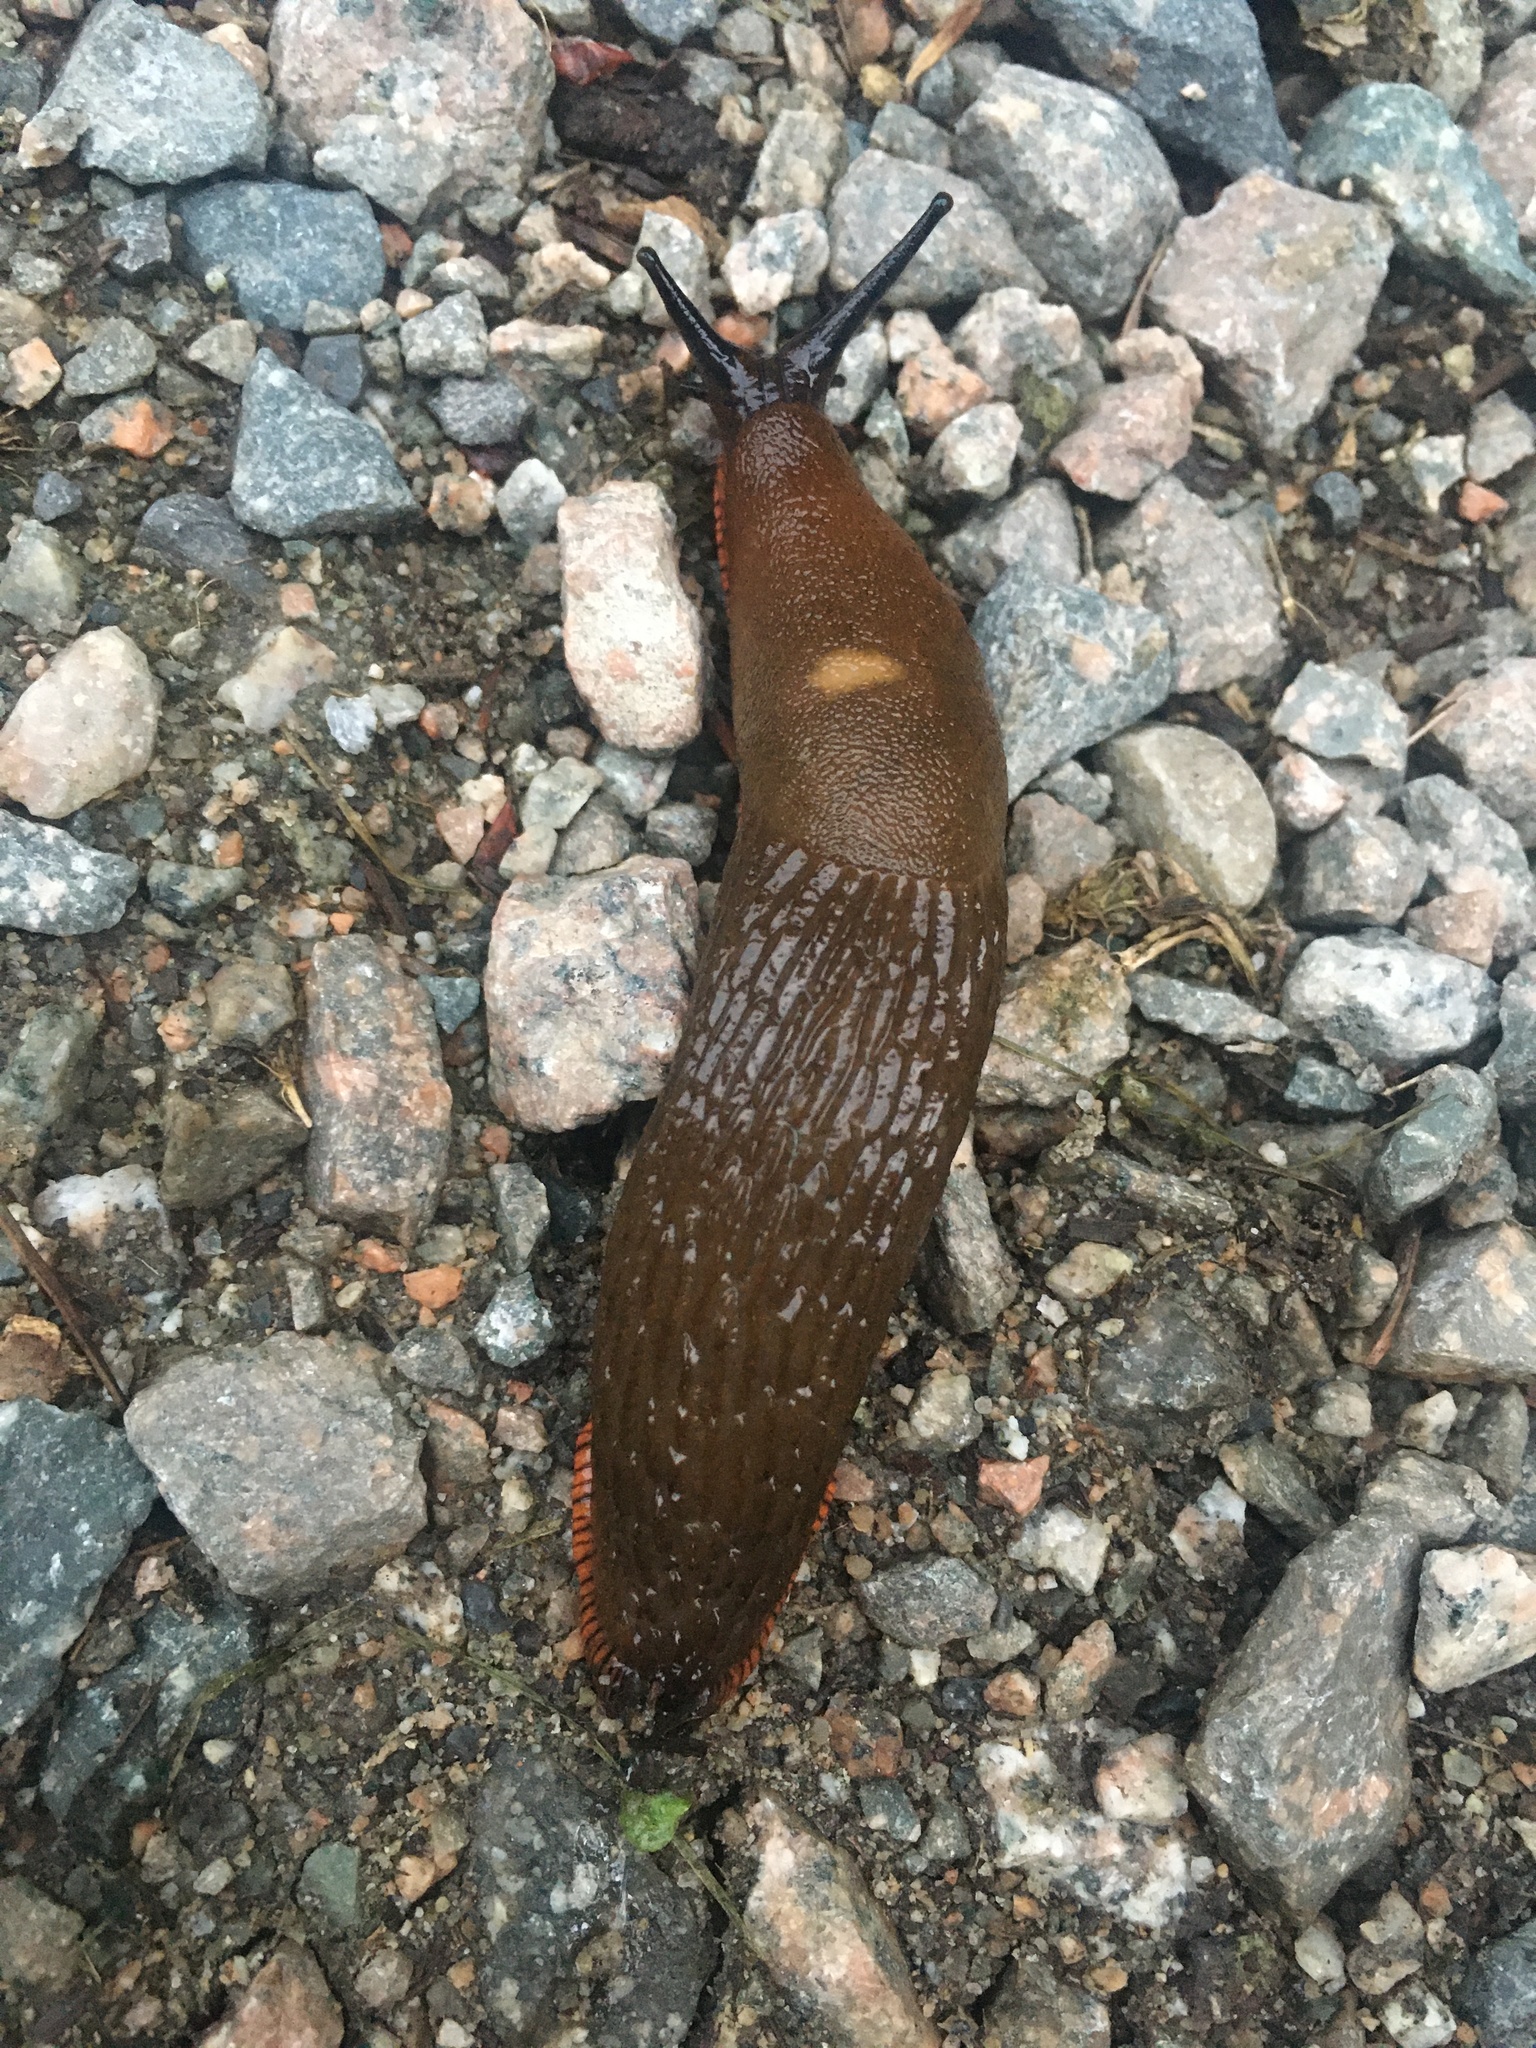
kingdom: Animalia
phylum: Mollusca
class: Gastropoda
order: Stylommatophora
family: Arionidae
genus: Arion
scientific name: Arion
